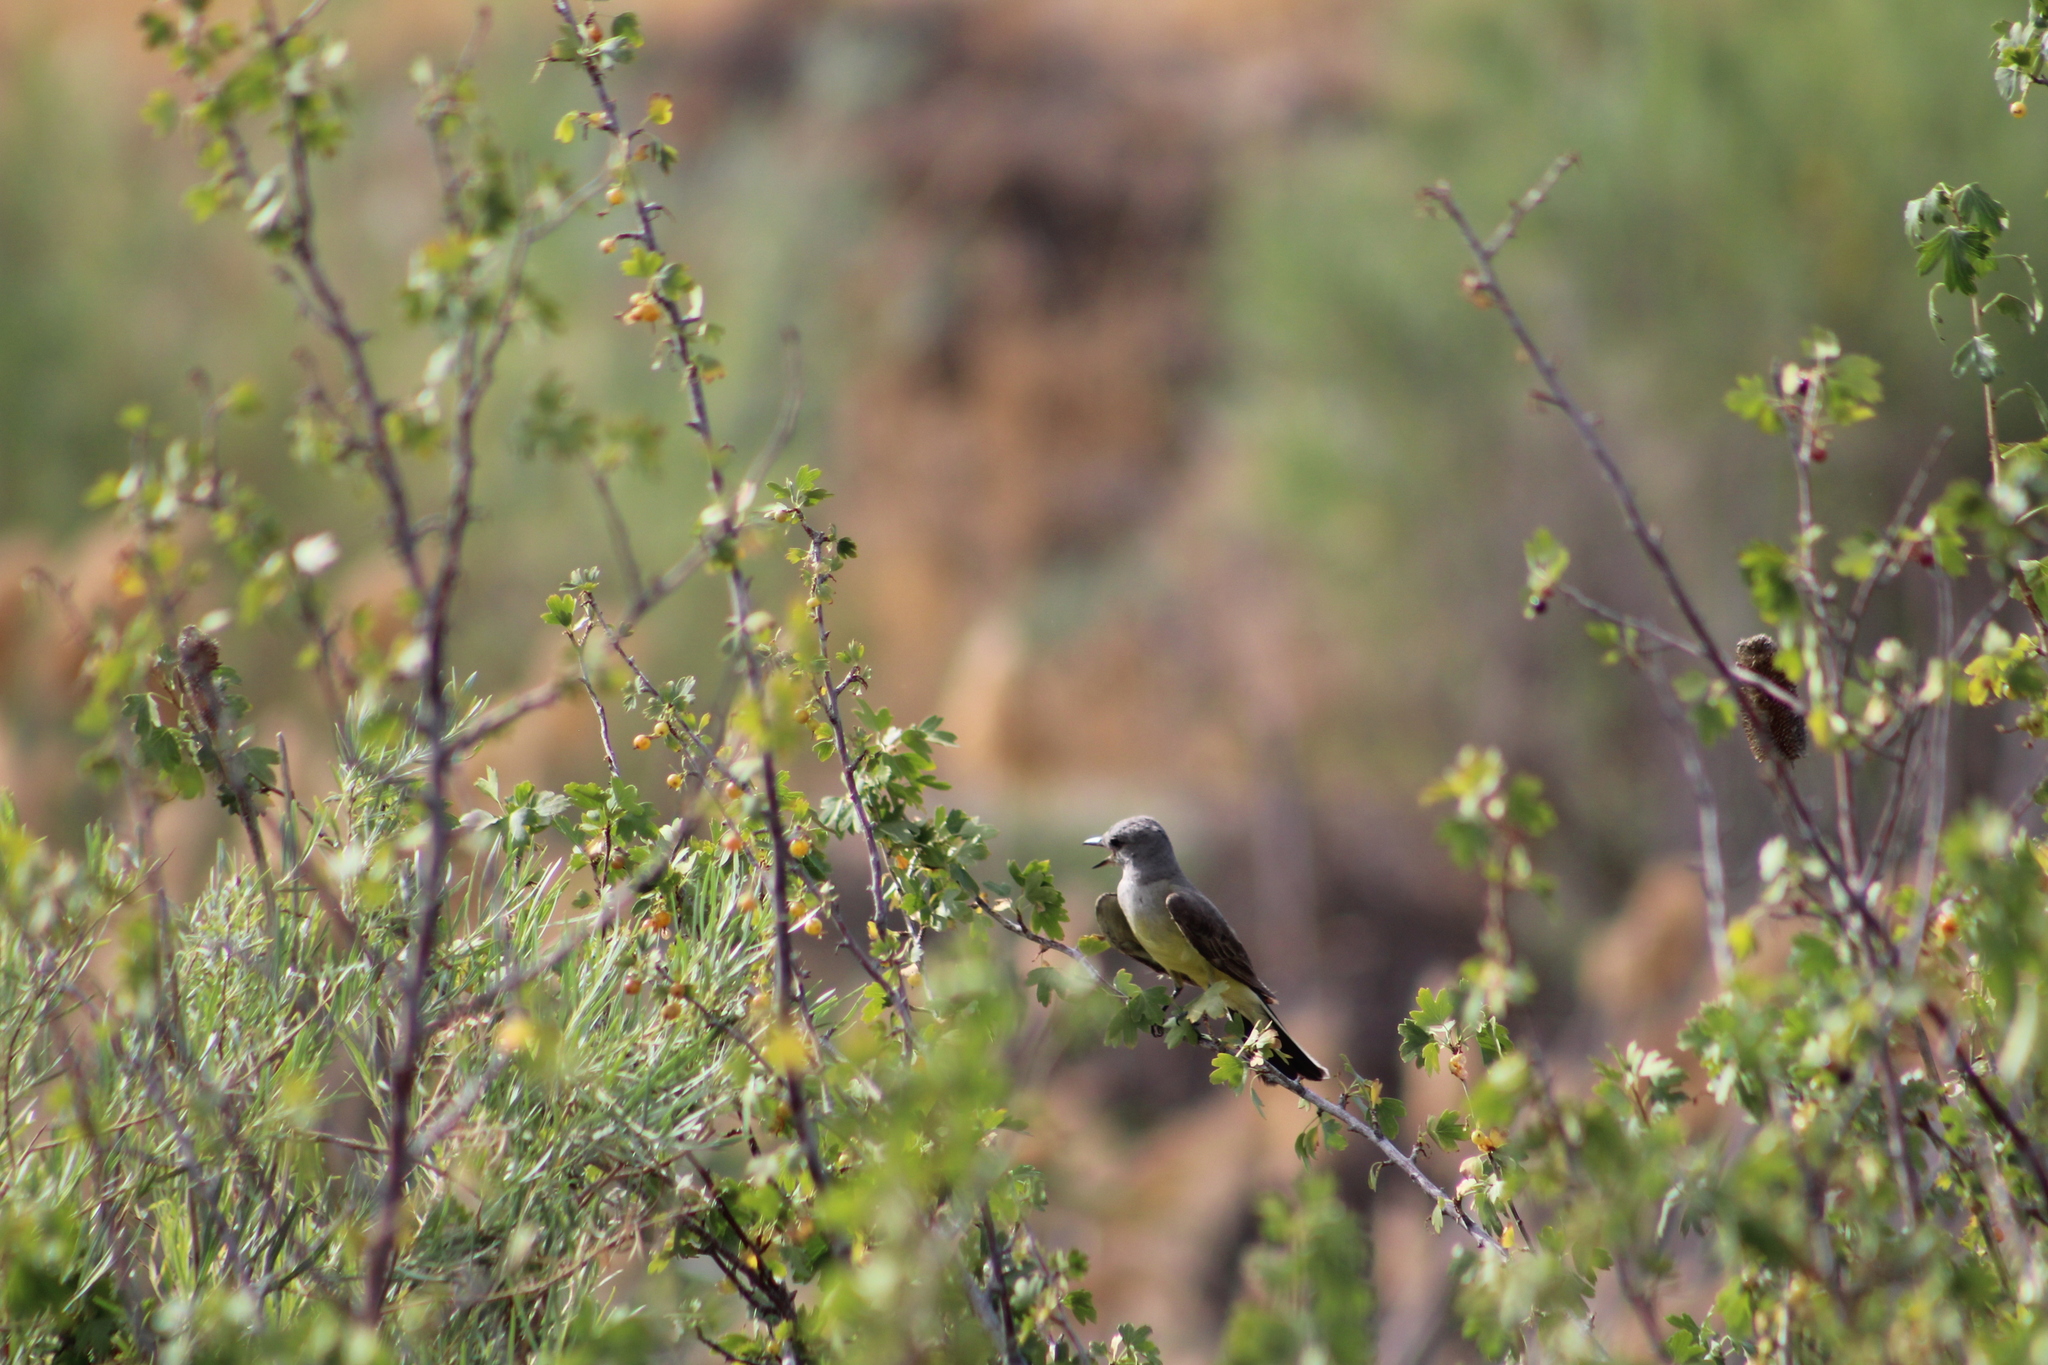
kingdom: Animalia
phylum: Chordata
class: Aves
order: Passeriformes
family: Tyrannidae
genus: Tyrannus
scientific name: Tyrannus verticalis
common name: Western kingbird
